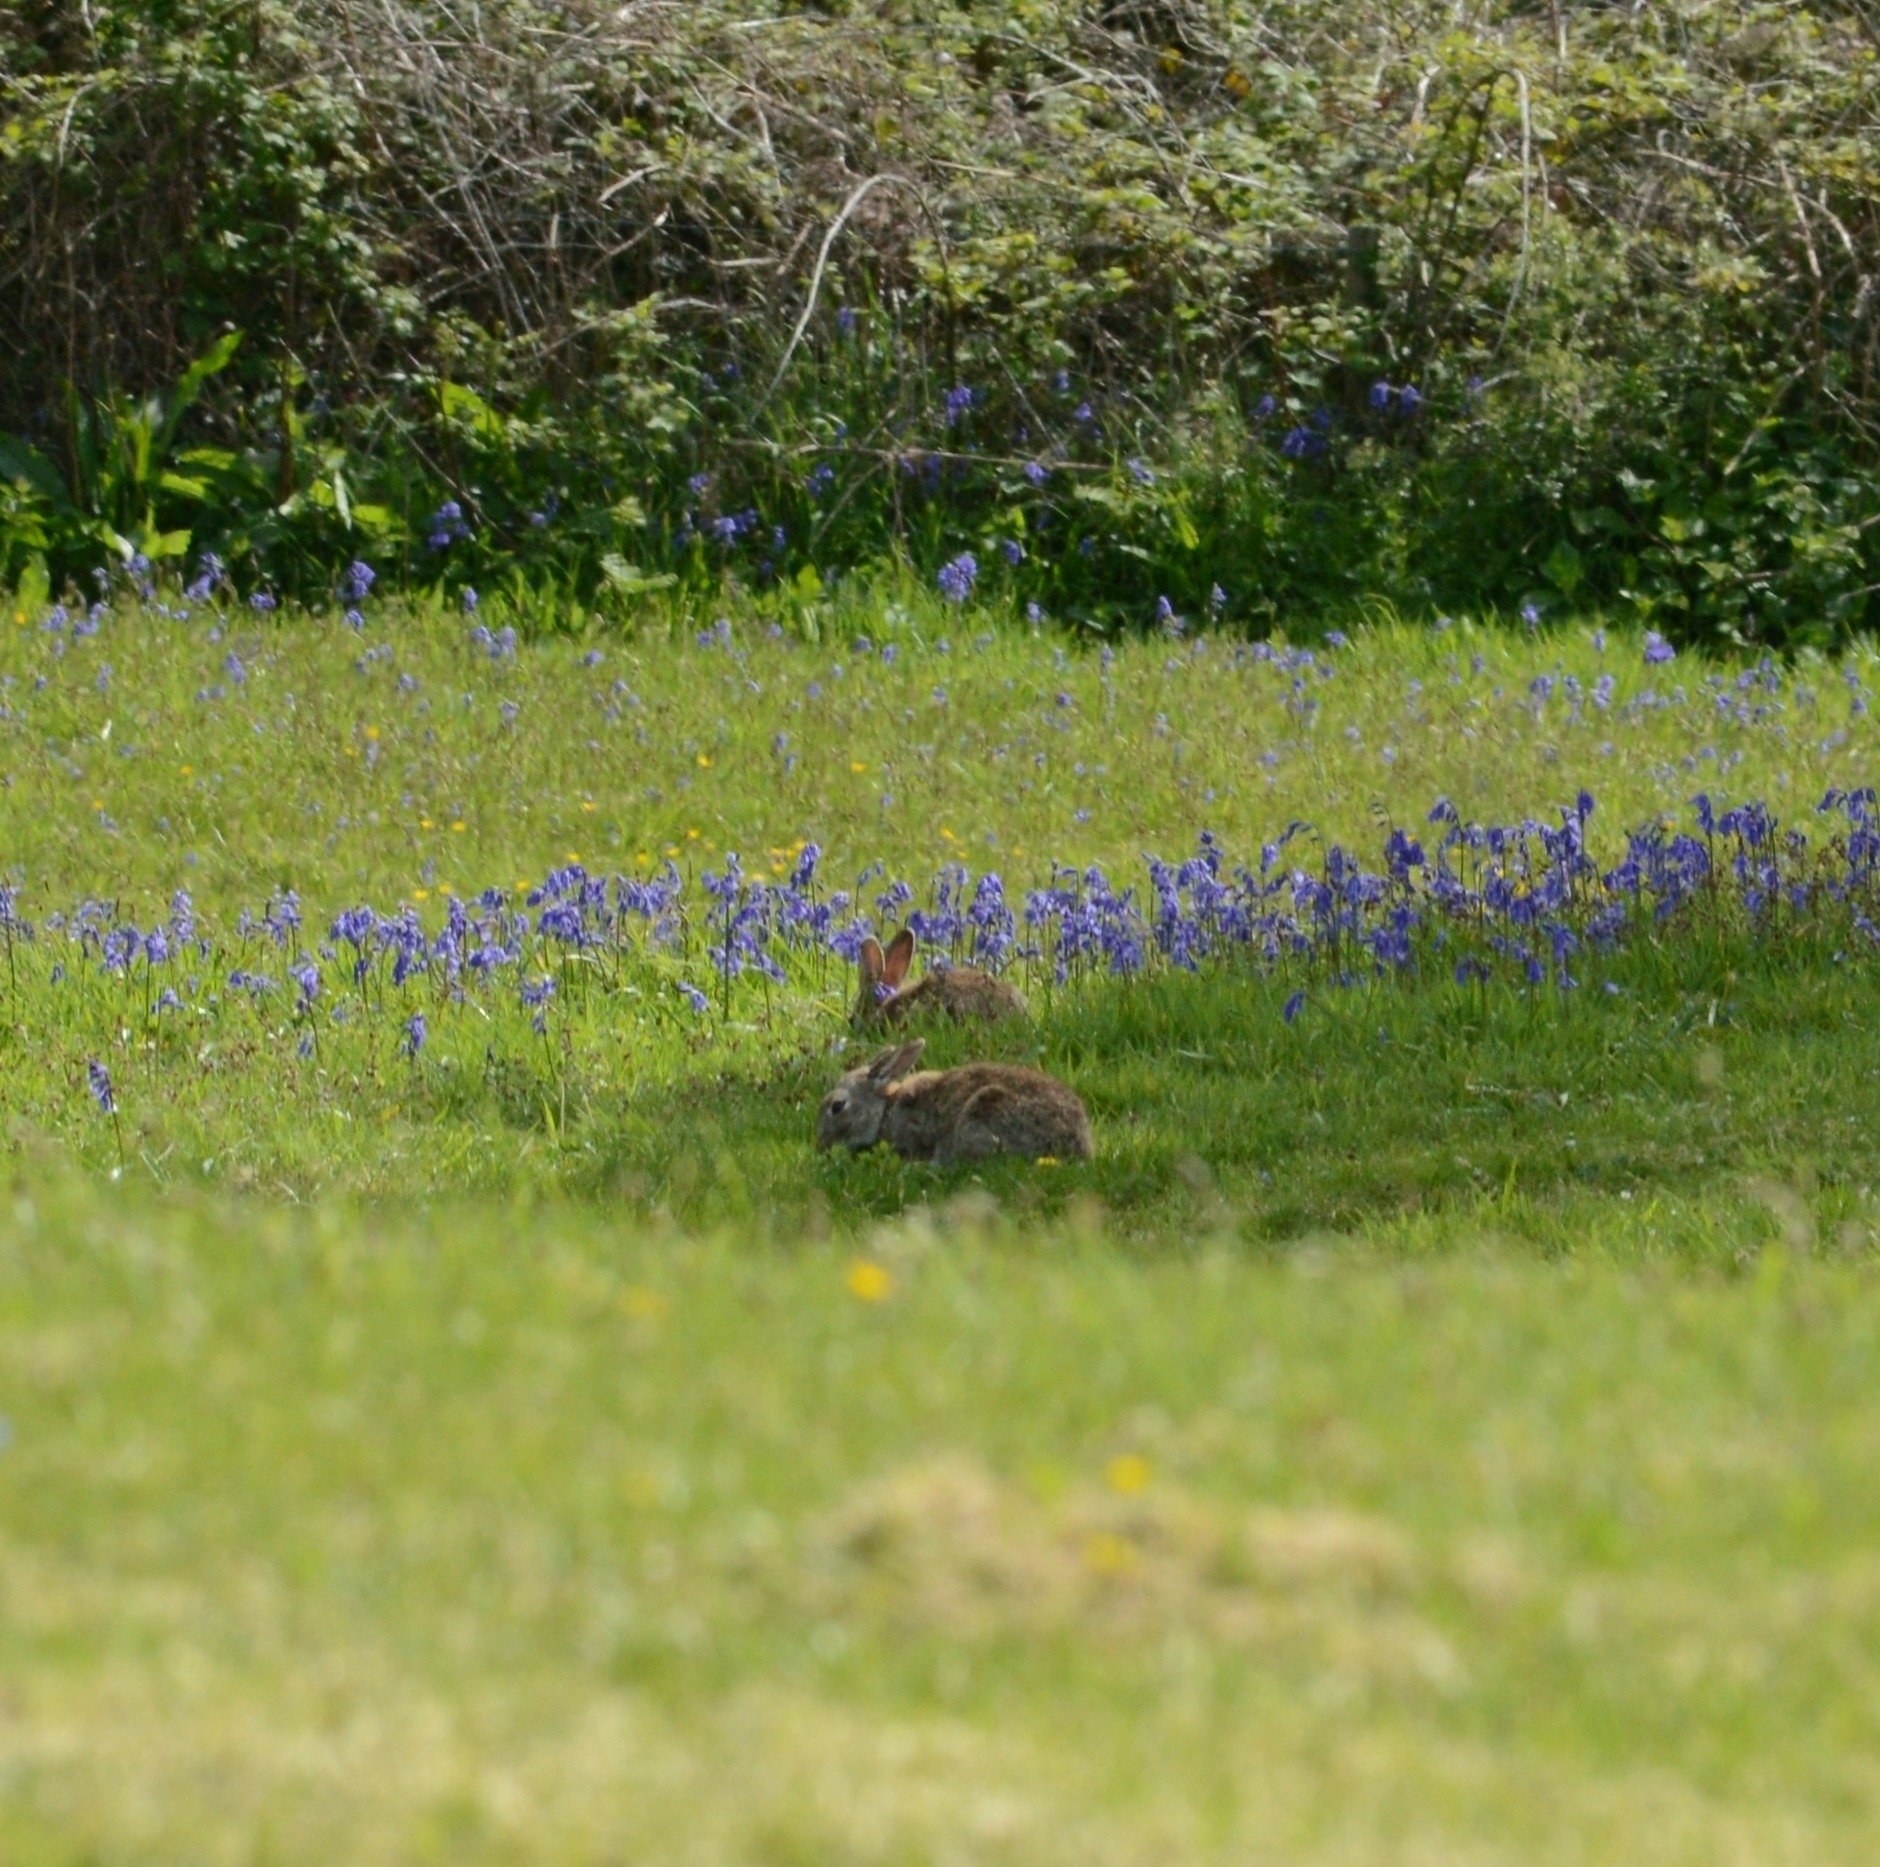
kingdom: Animalia
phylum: Chordata
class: Mammalia
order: Lagomorpha
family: Leporidae
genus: Oryctolagus
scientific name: Oryctolagus cuniculus
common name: European rabbit
